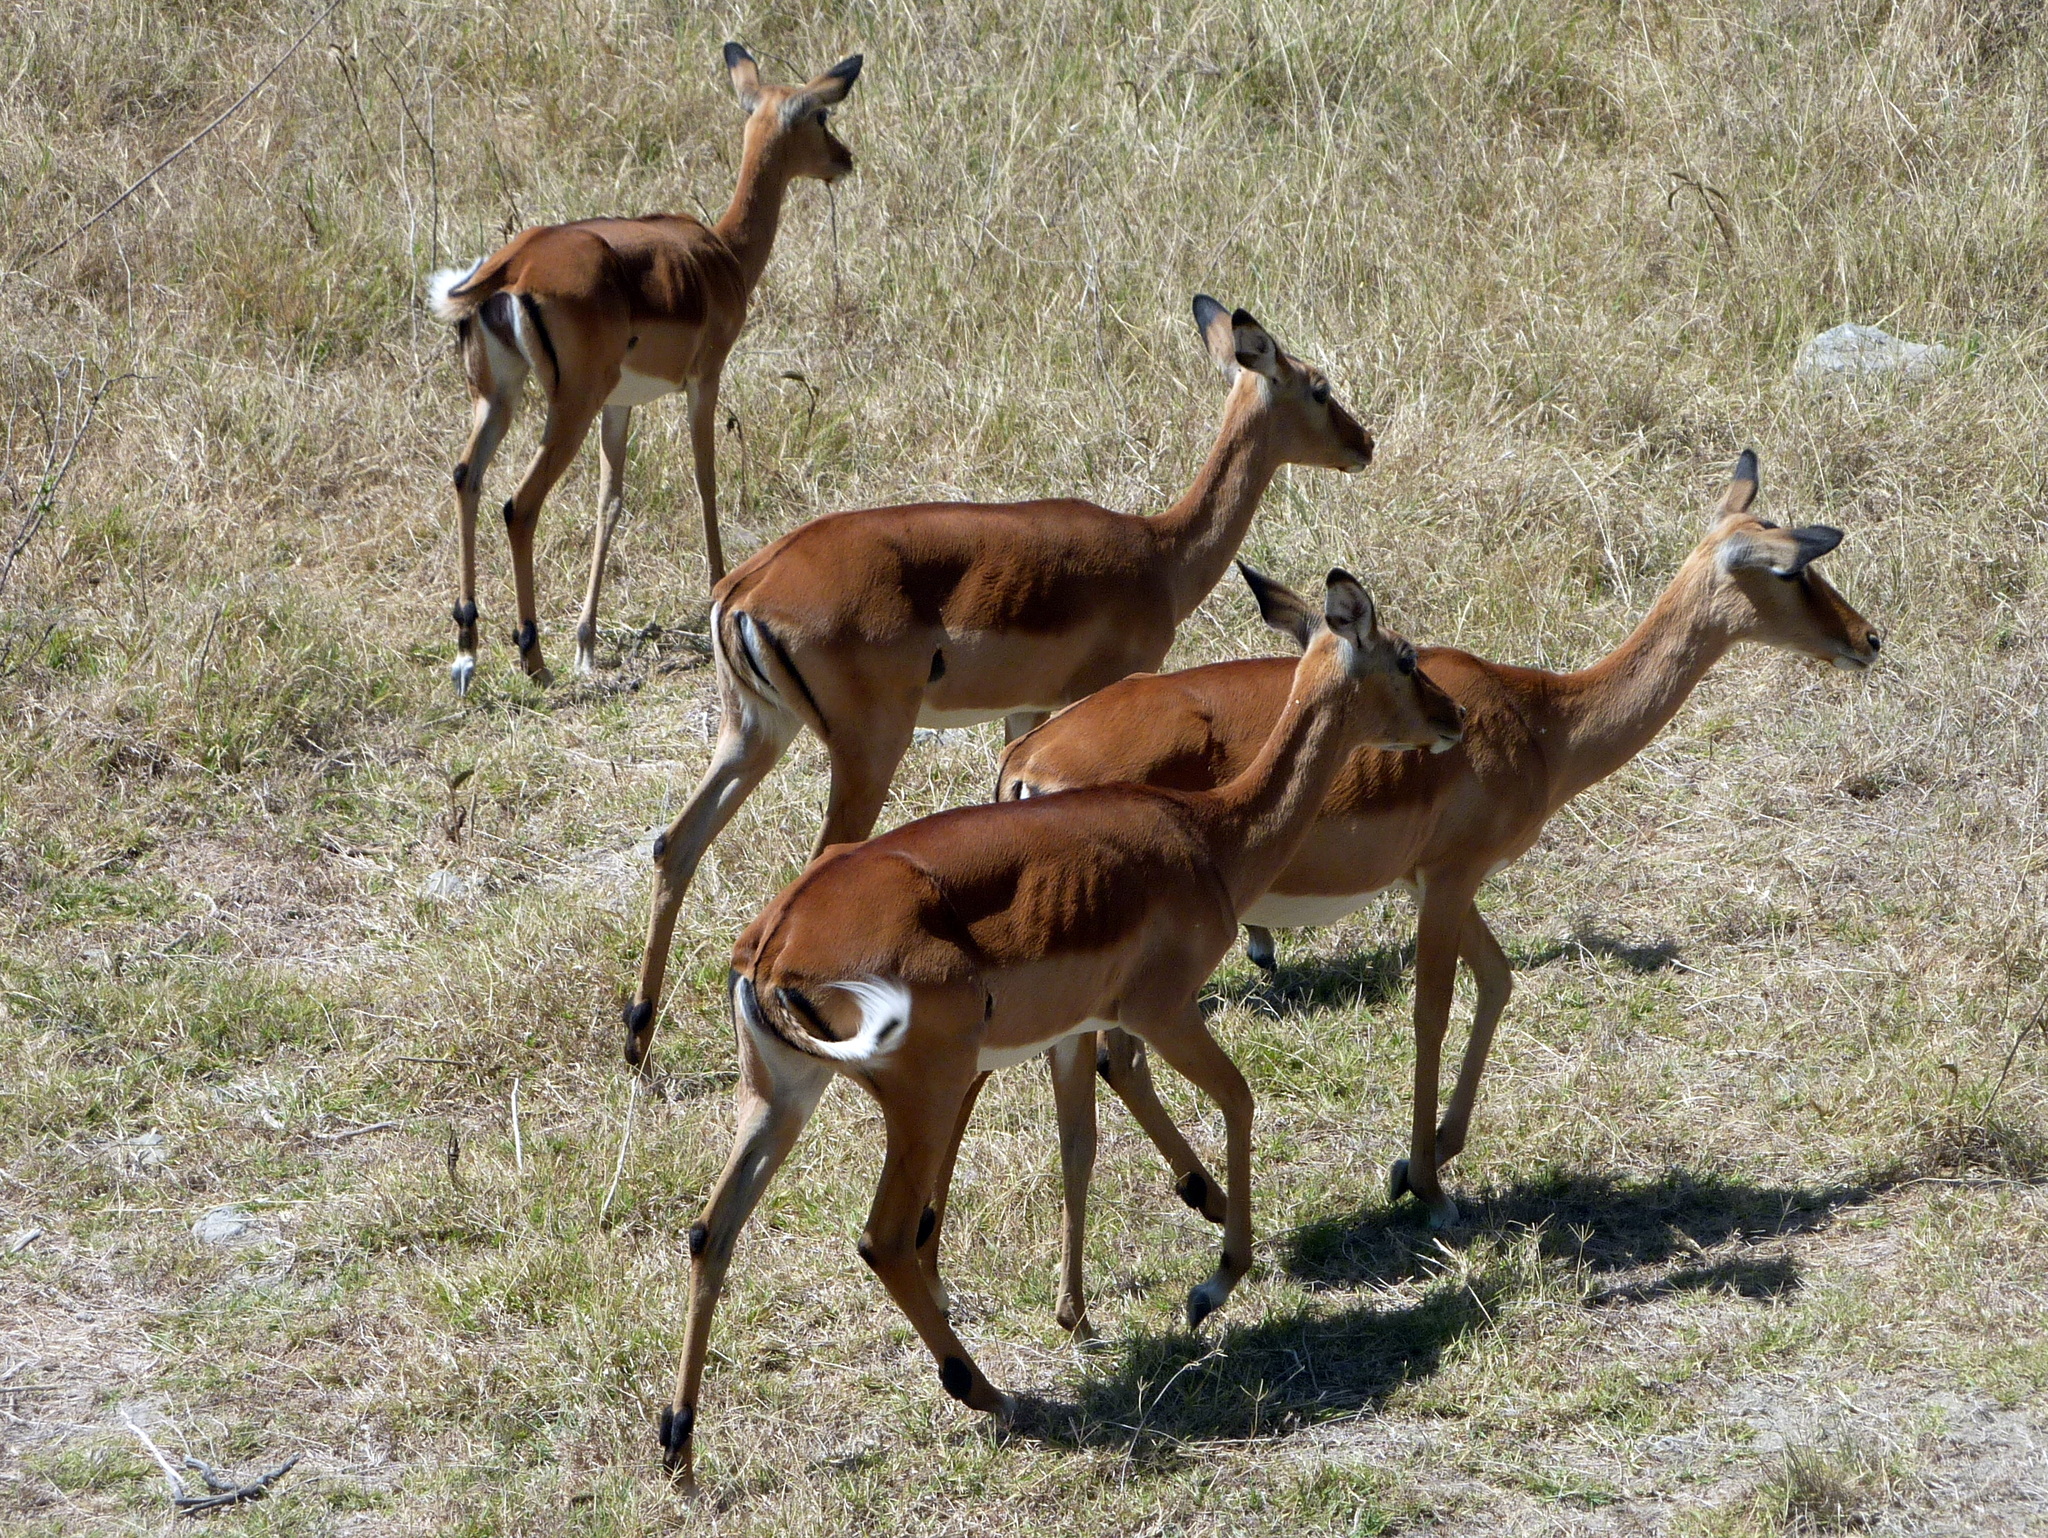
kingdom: Animalia
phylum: Chordata
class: Mammalia
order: Artiodactyla
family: Bovidae
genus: Aepyceros
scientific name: Aepyceros melampus
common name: Impala
